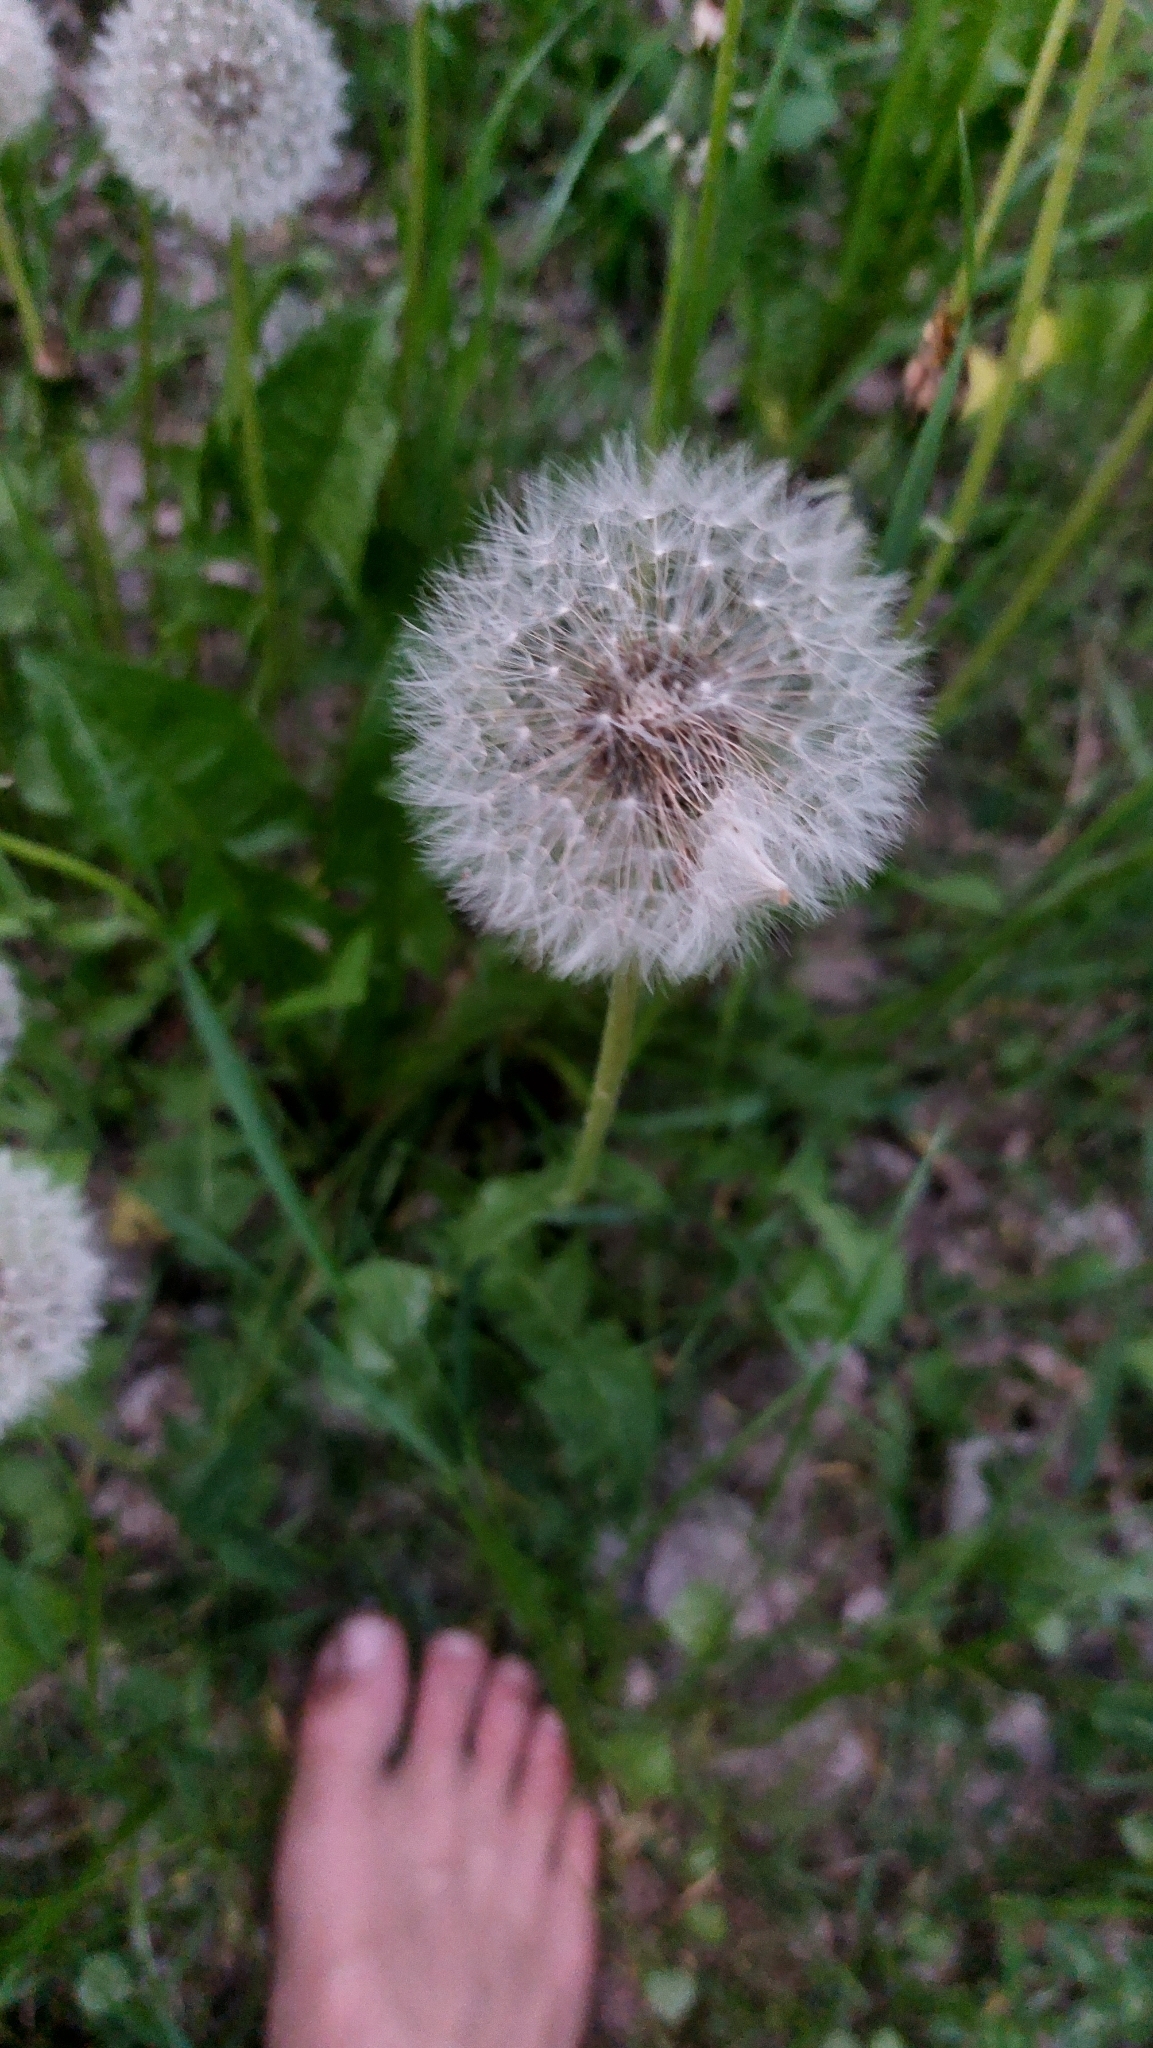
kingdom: Plantae
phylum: Tracheophyta
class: Magnoliopsida
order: Asterales
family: Asteraceae
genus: Taraxacum
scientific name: Taraxacum
